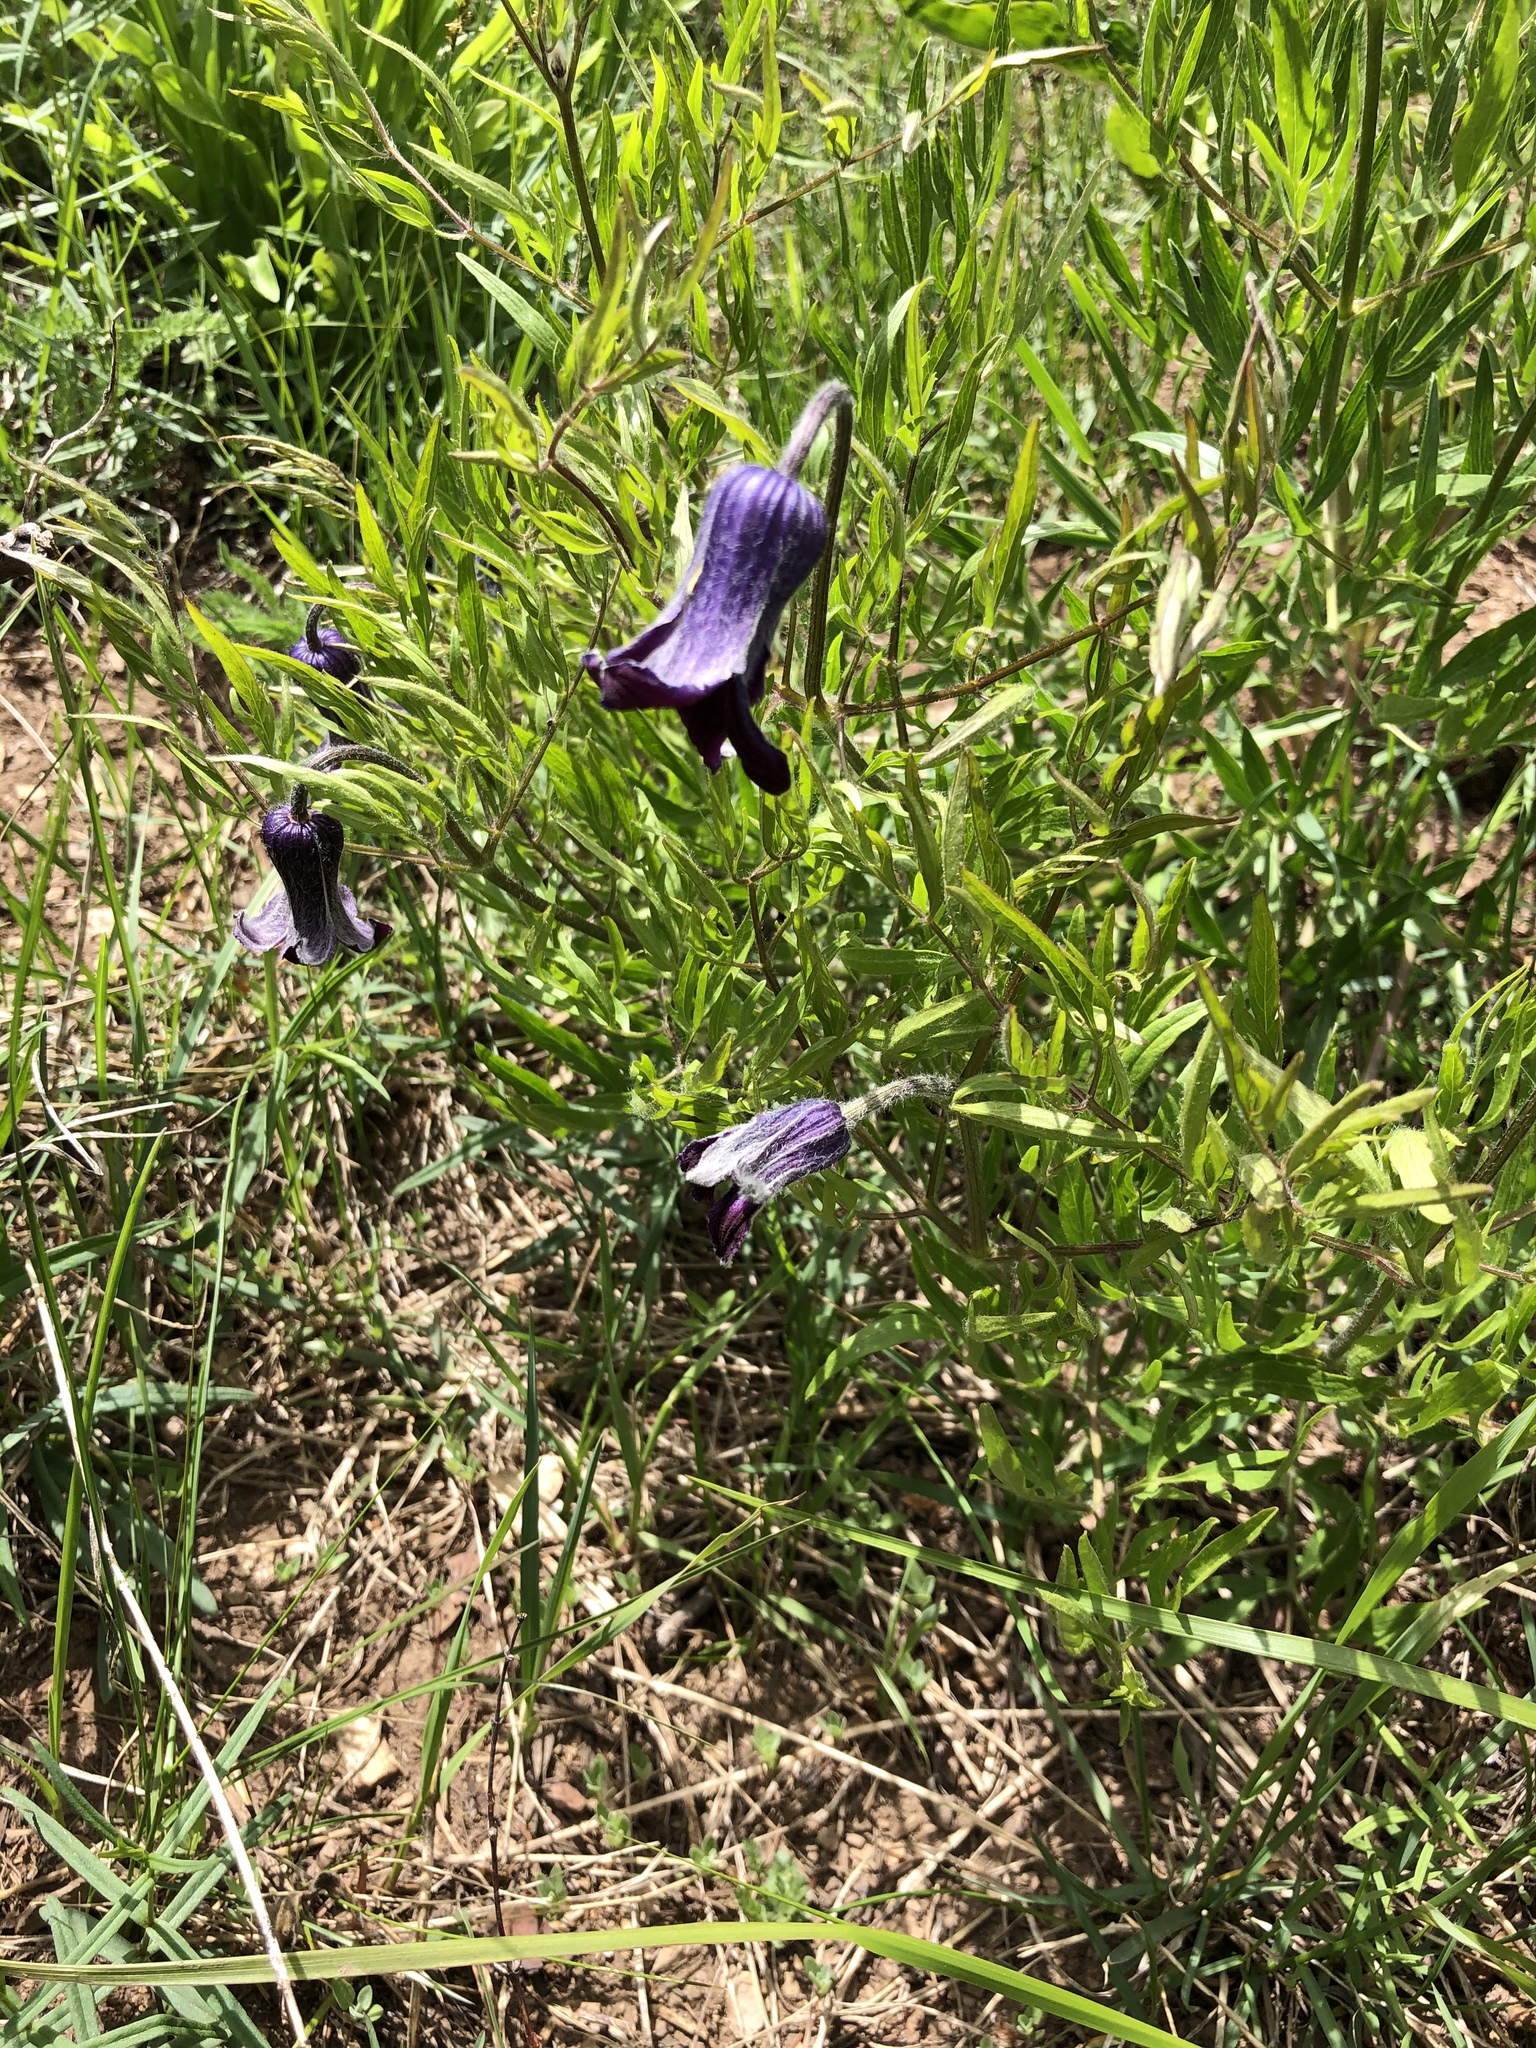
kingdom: Plantae
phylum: Tracheophyta
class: Magnoliopsida
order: Ranunculales
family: Ranunculaceae
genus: Clematis
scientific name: Clematis hirsutissima
